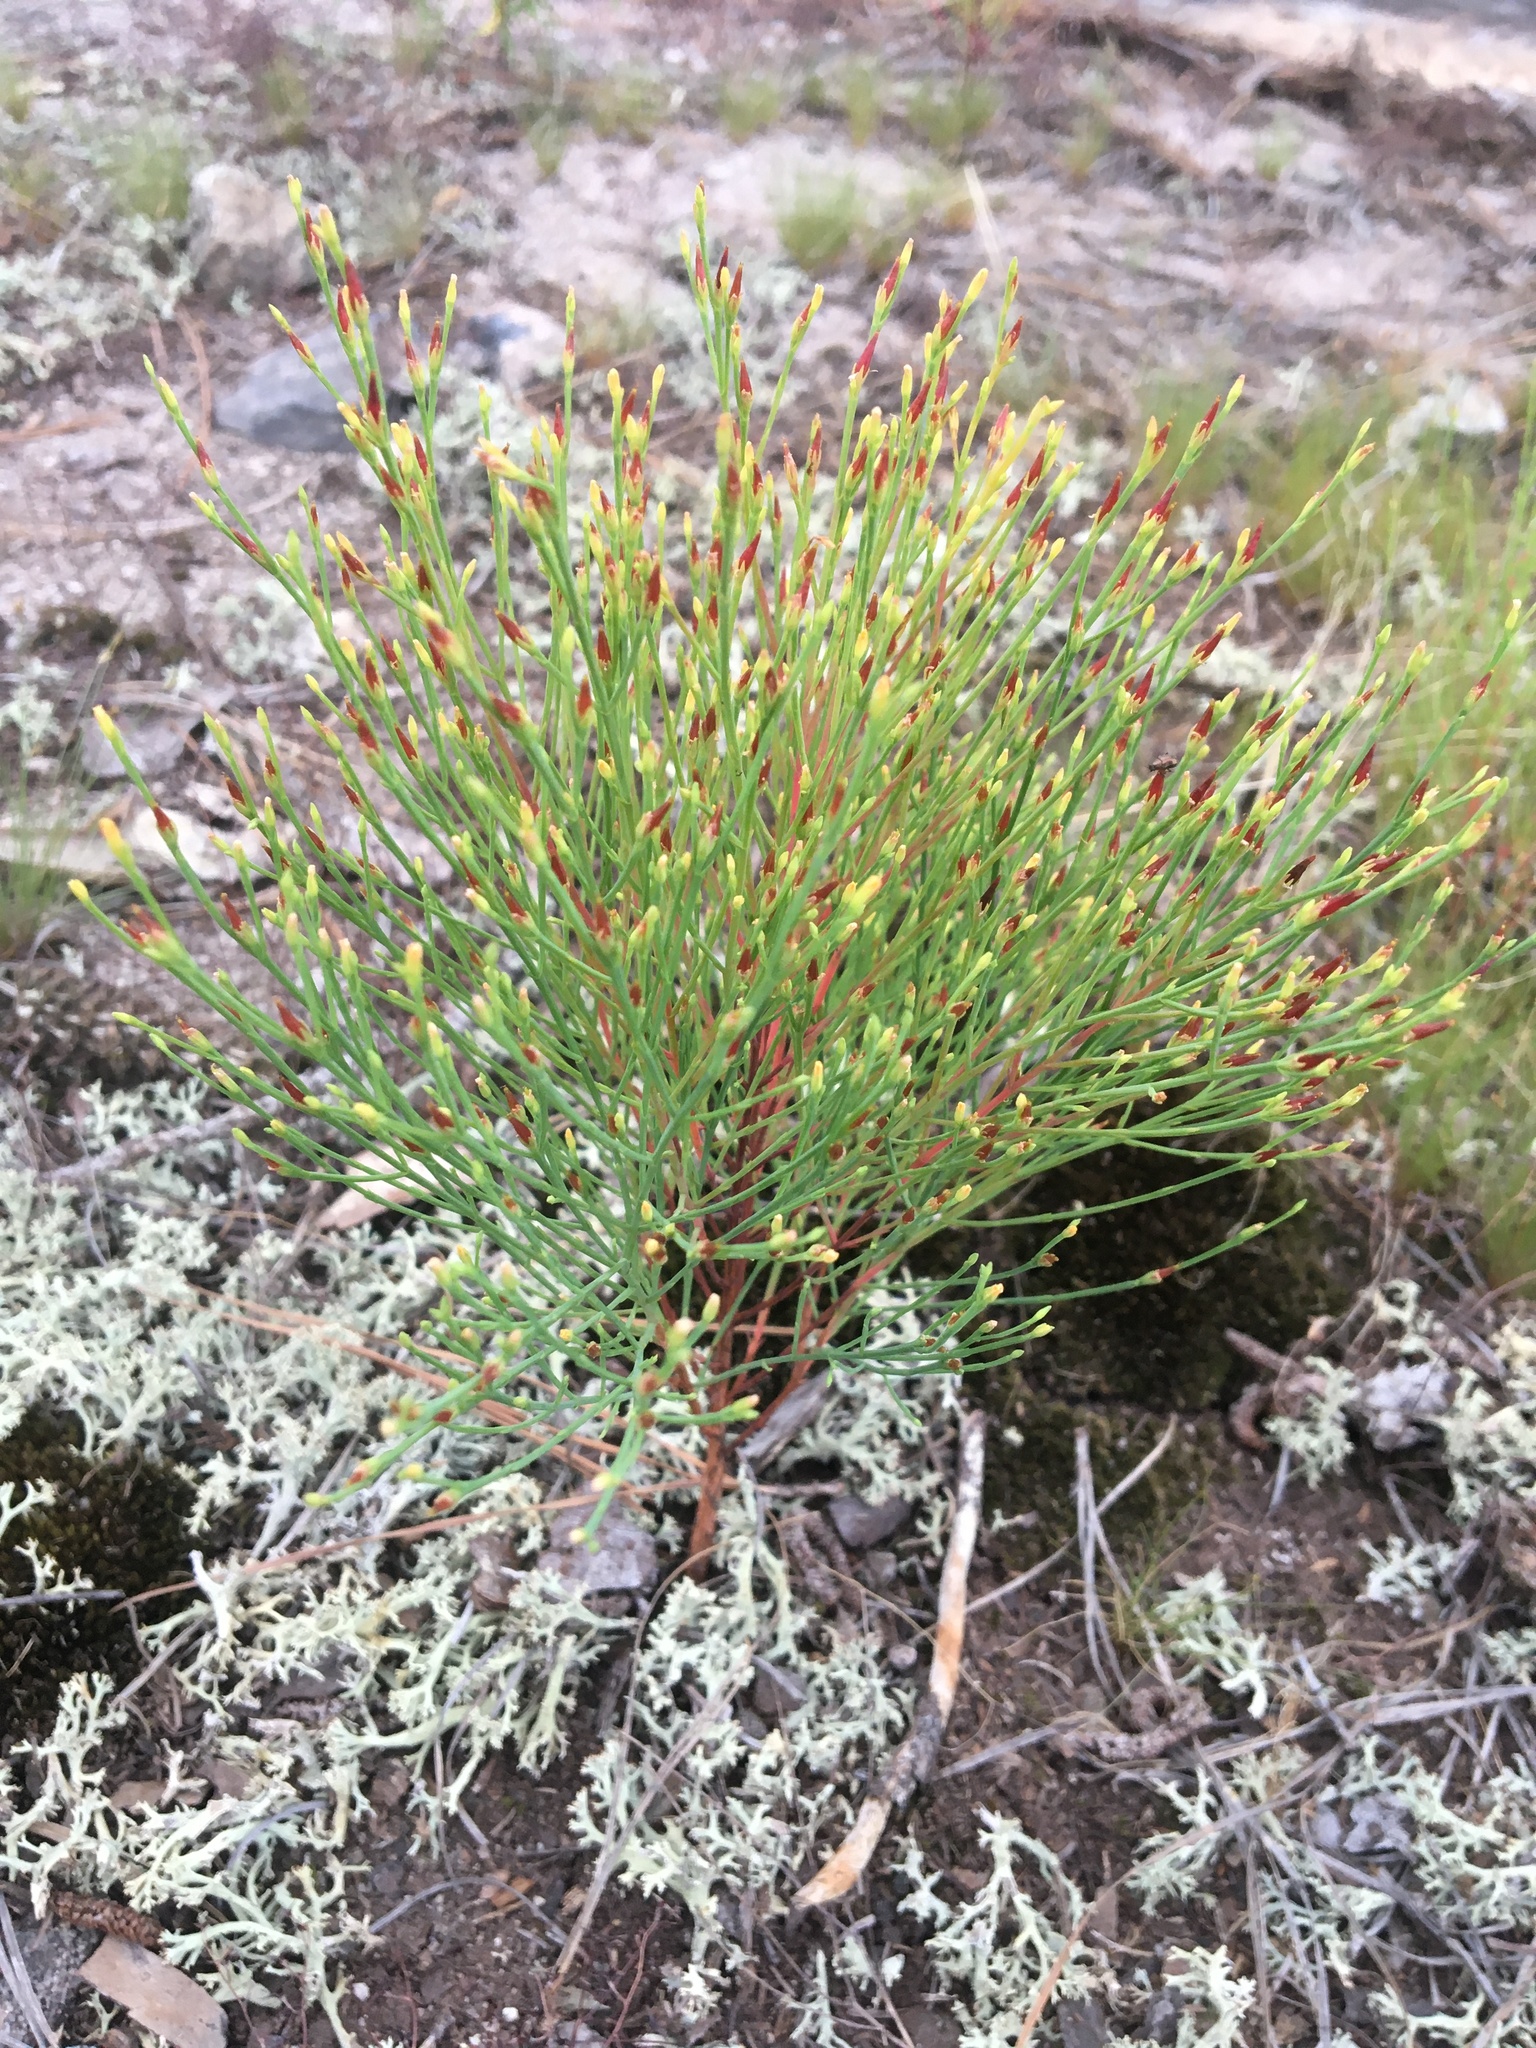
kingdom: Plantae
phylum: Tracheophyta
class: Magnoliopsida
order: Malpighiales
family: Hypericaceae
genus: Hypericum
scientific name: Hypericum gentianoides
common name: Gentian-leaved st. john's-wort
